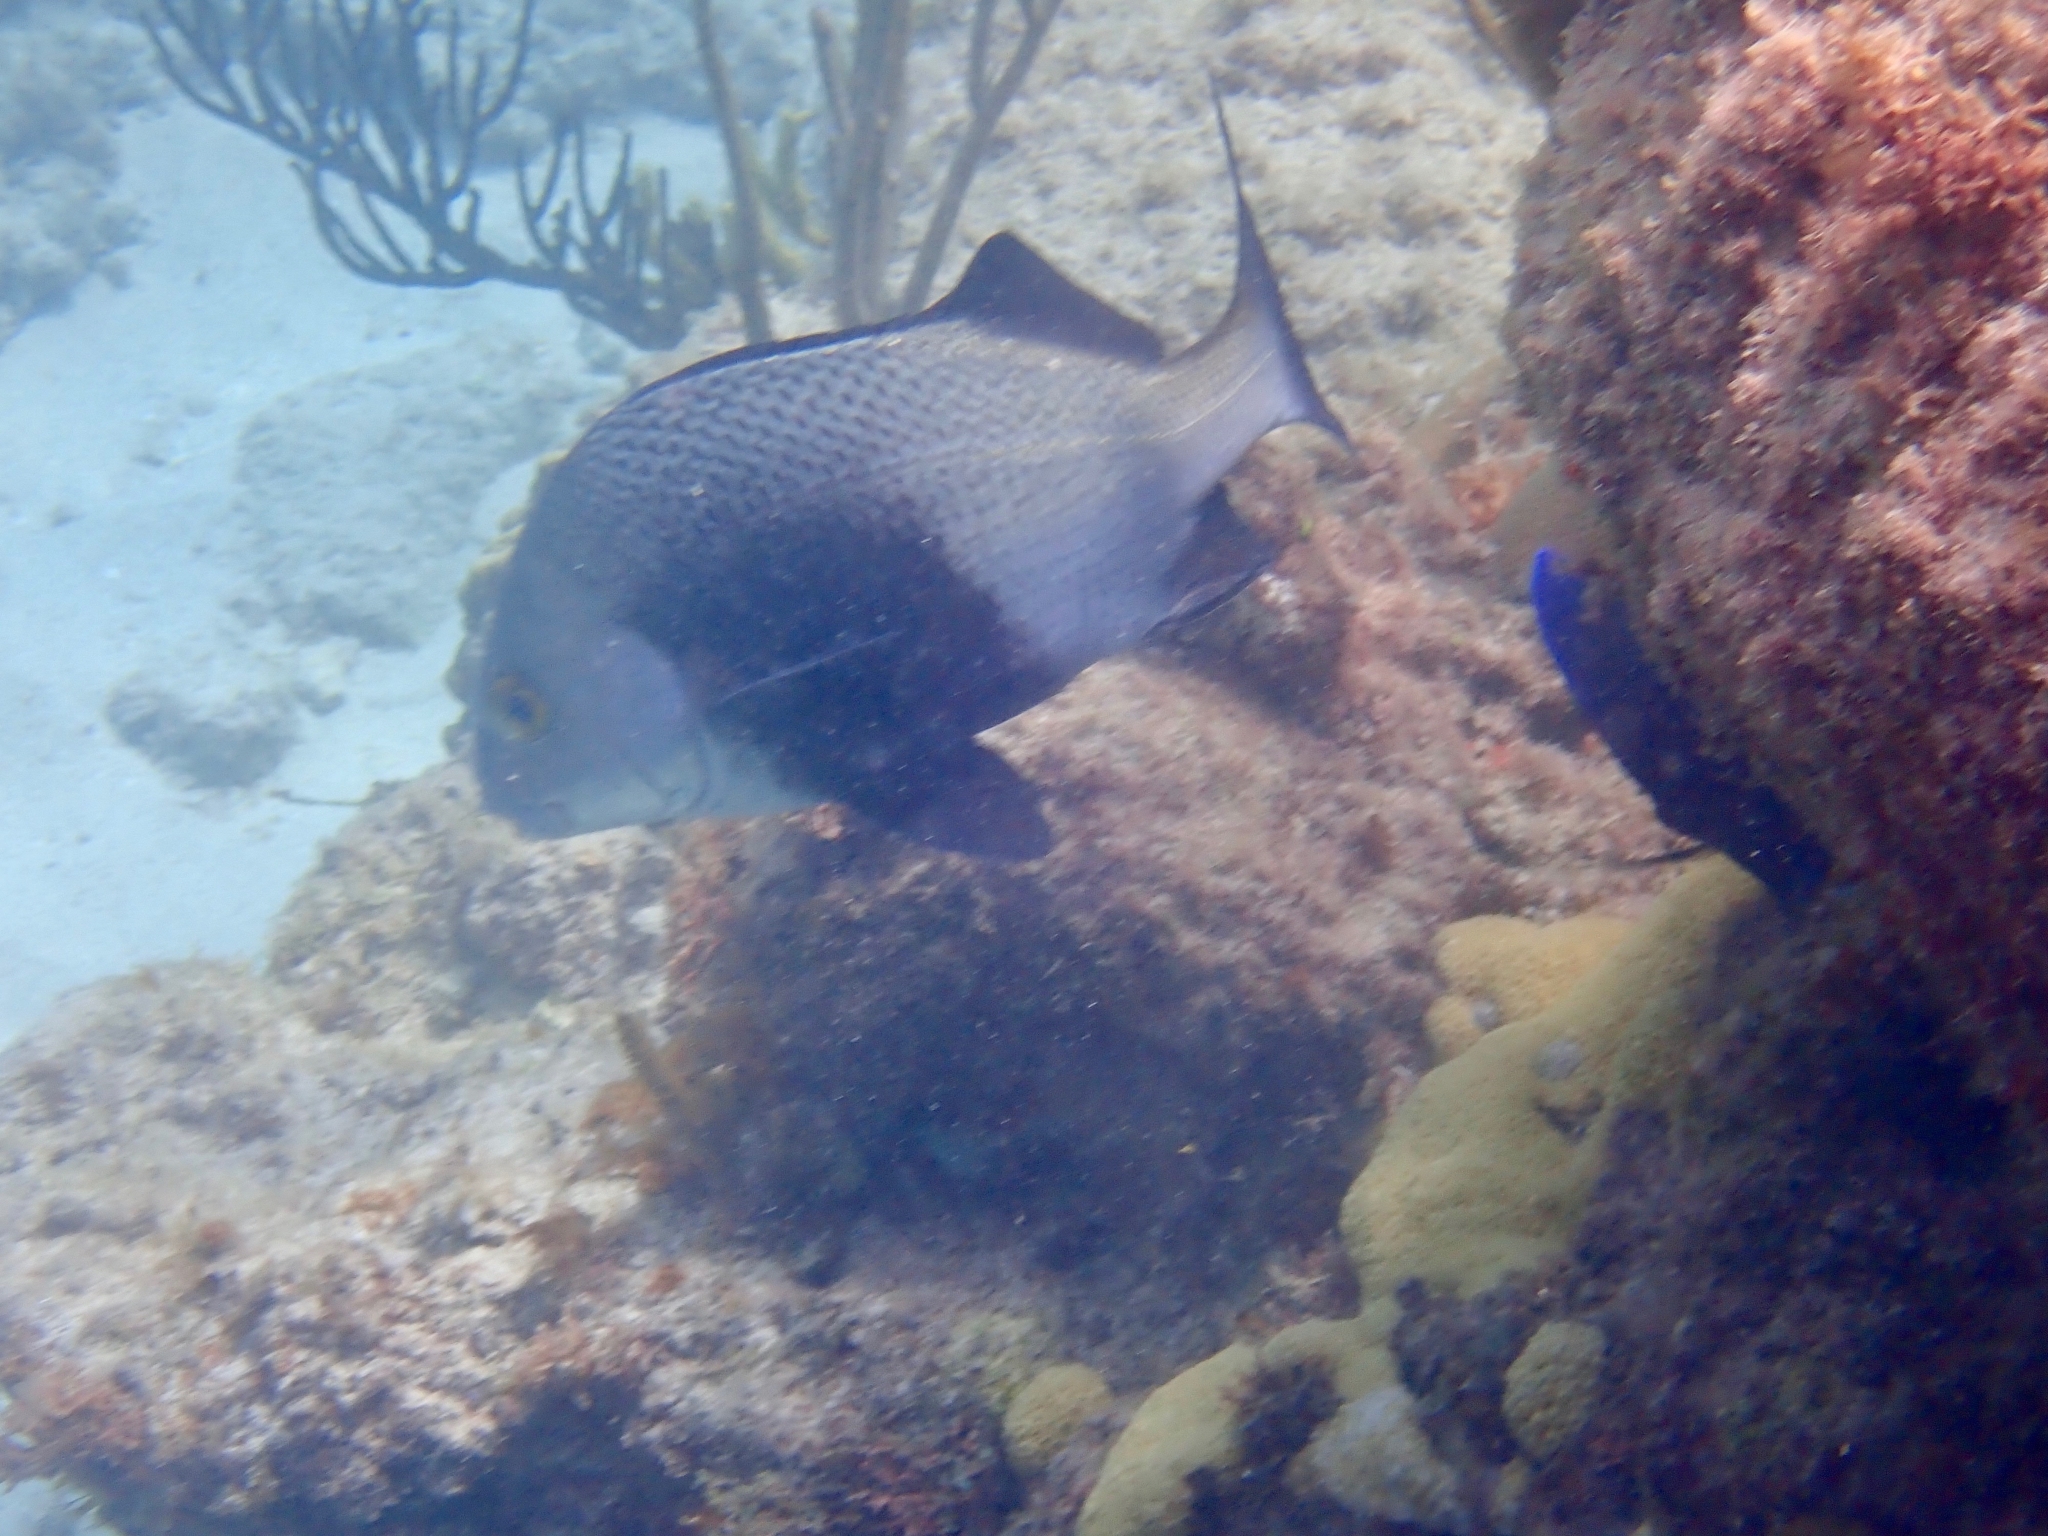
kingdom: Animalia
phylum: Chordata
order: Perciformes
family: Haemulidae
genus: Anisotremus
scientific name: Anisotremus surinamensis
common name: Black margate
